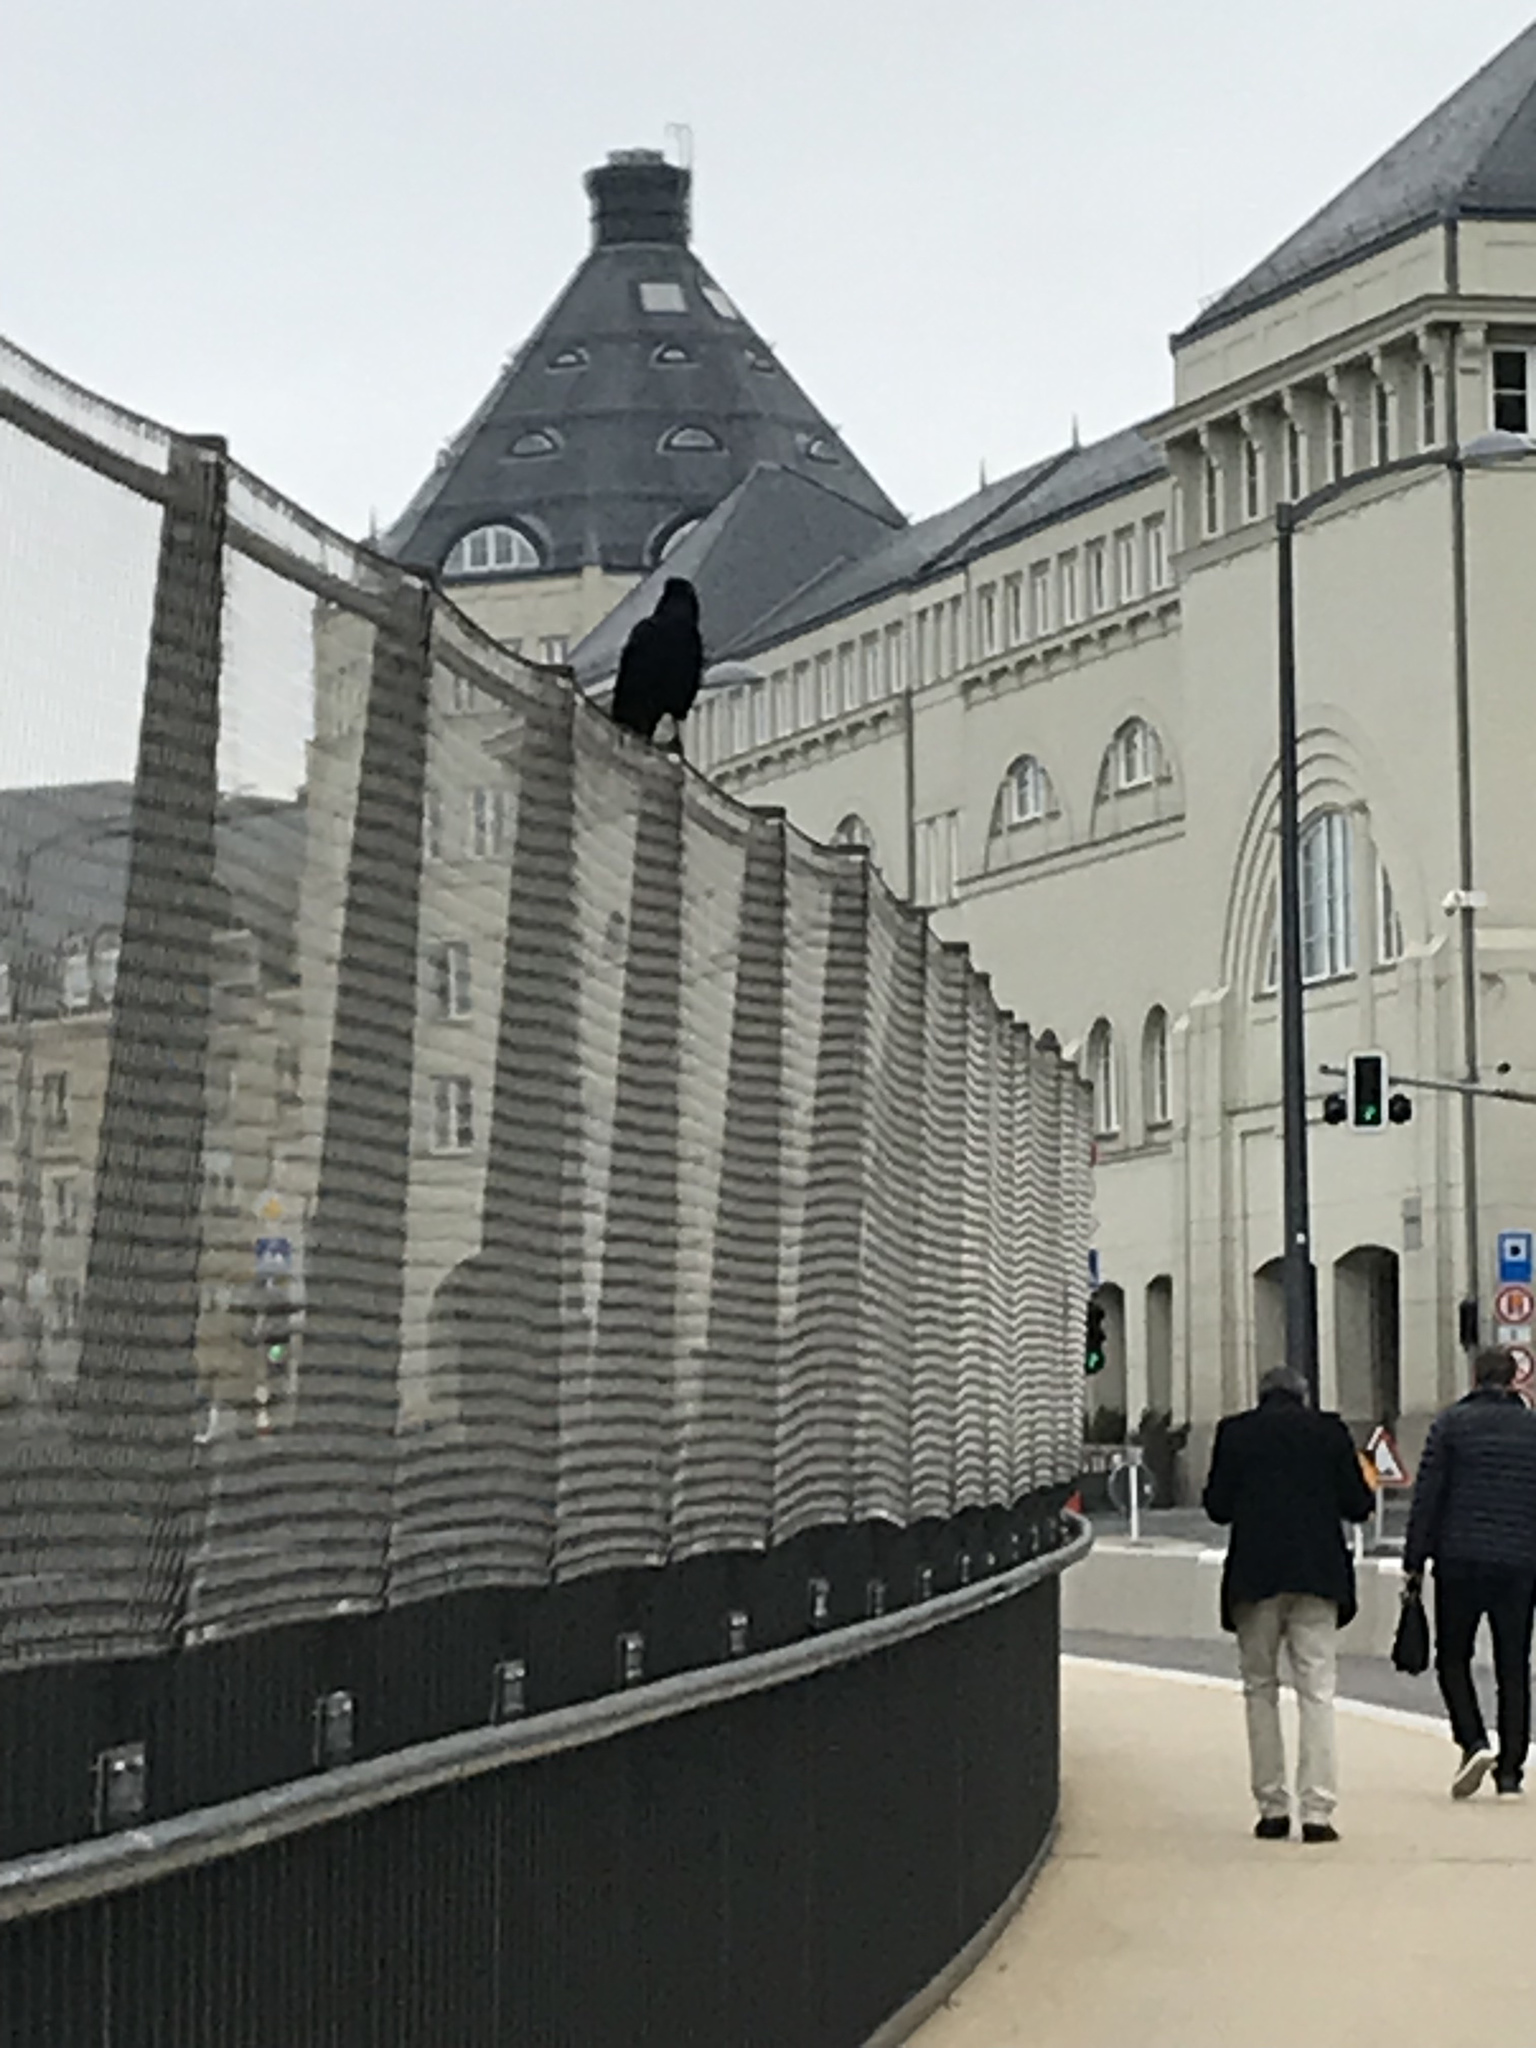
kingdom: Animalia
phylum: Chordata
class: Aves
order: Passeriformes
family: Corvidae
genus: Corvus
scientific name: Corvus corone
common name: Carrion crow
